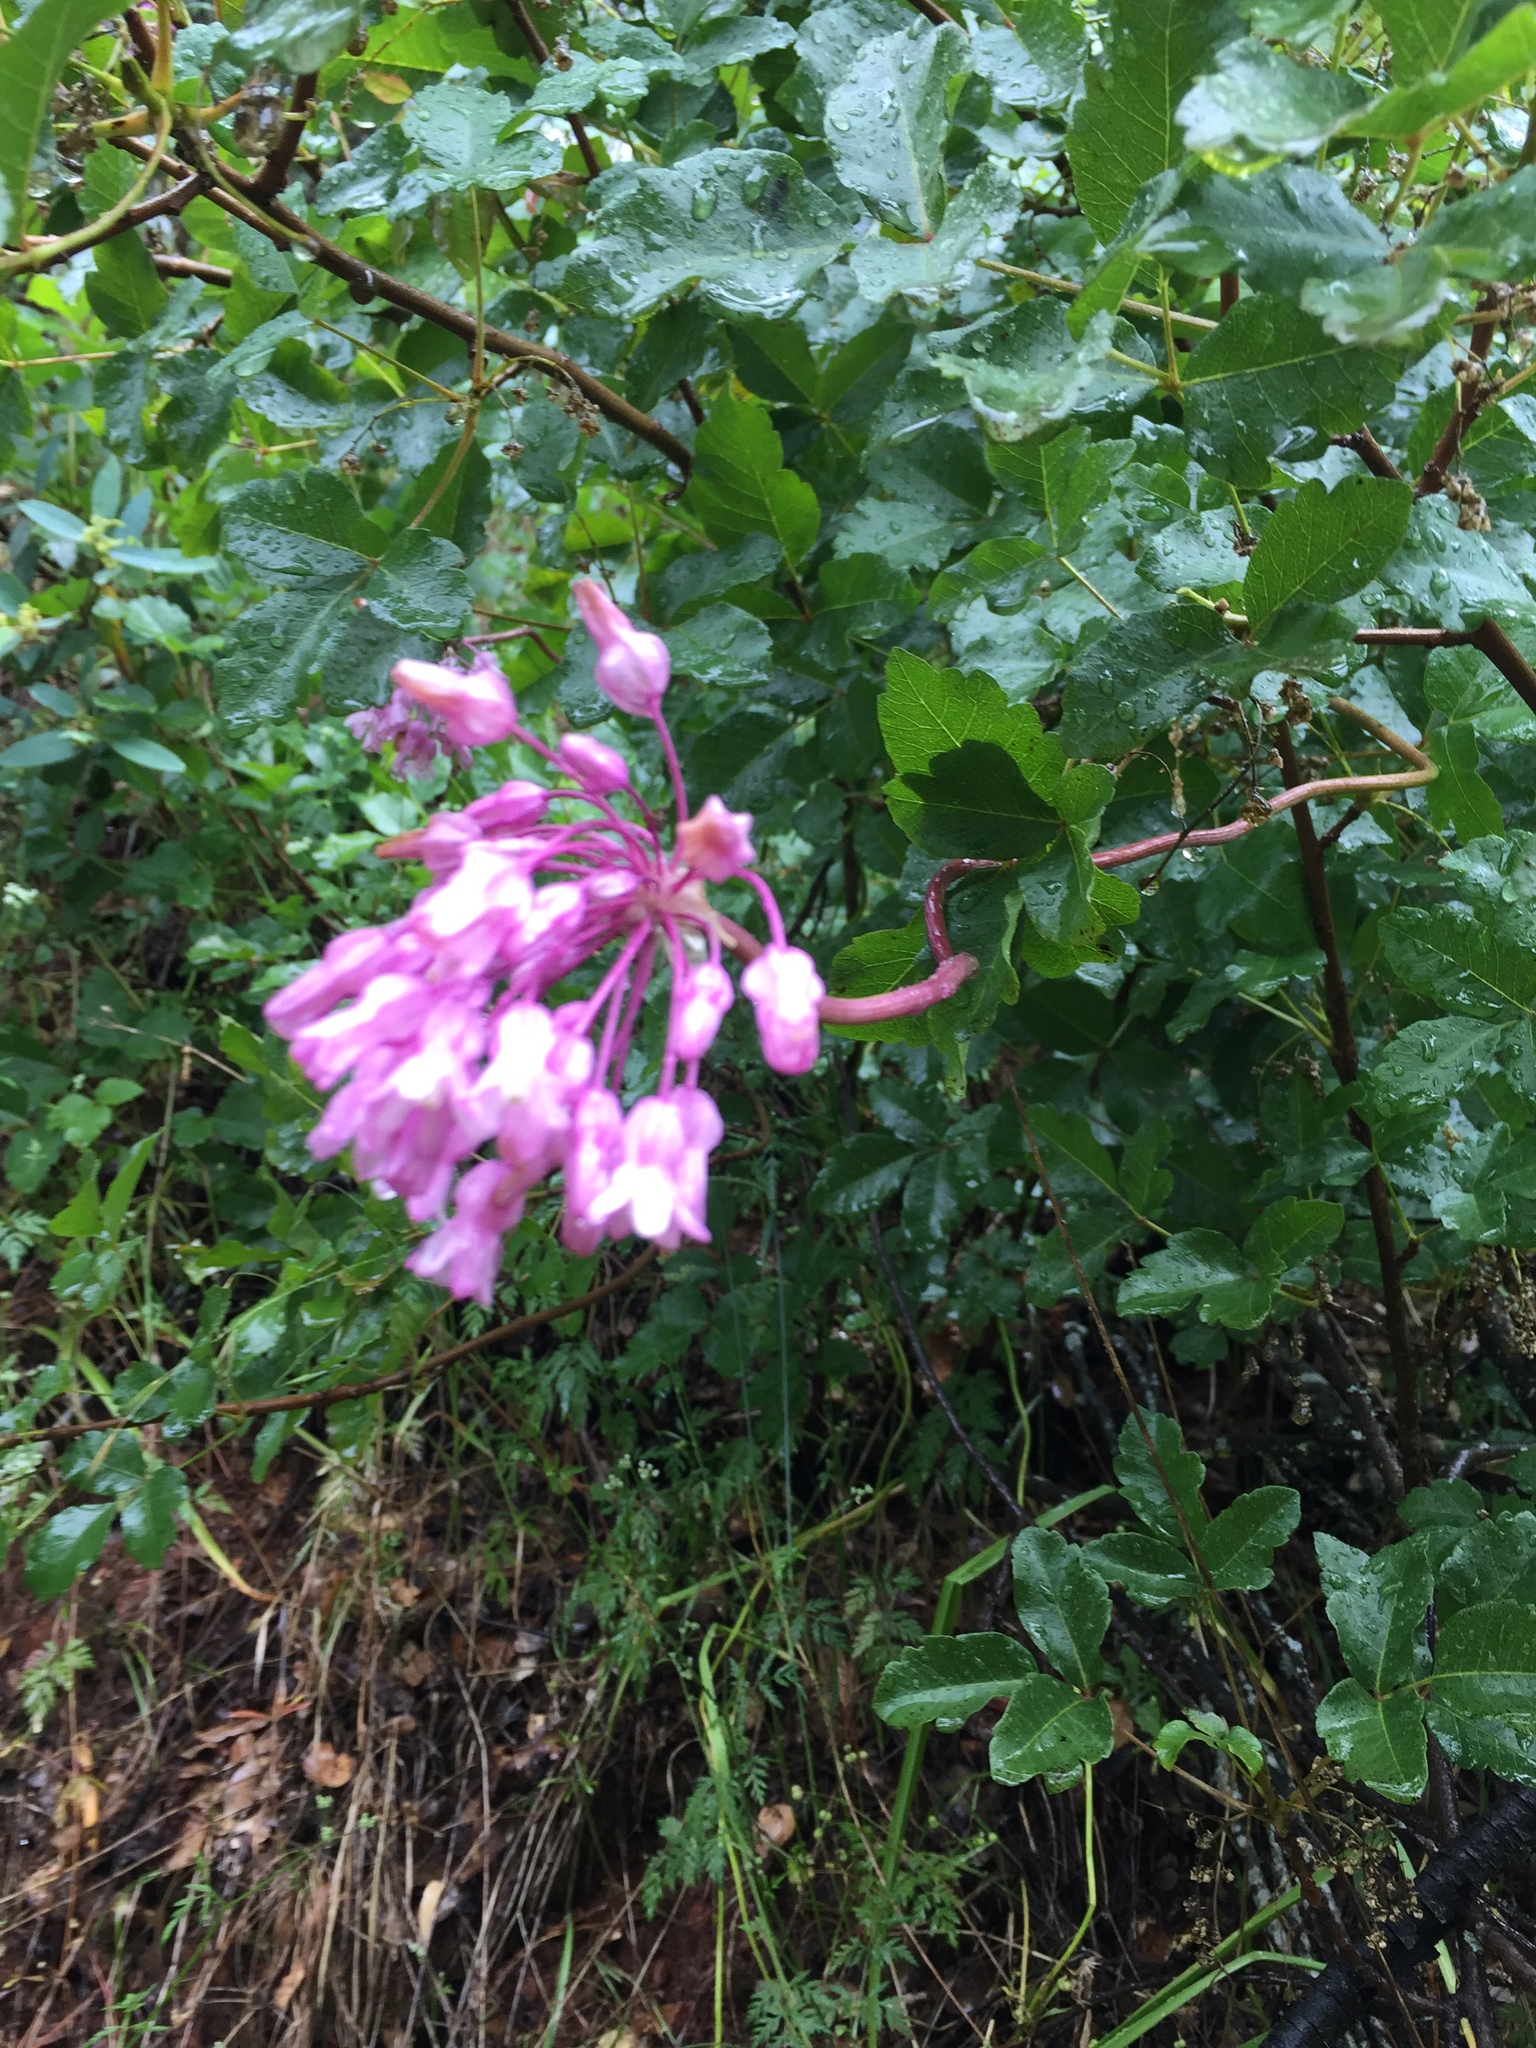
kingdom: Plantae
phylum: Tracheophyta
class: Liliopsida
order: Asparagales
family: Asparagaceae
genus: Dichelostemma
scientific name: Dichelostemma volubile
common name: Trining brodiaea
